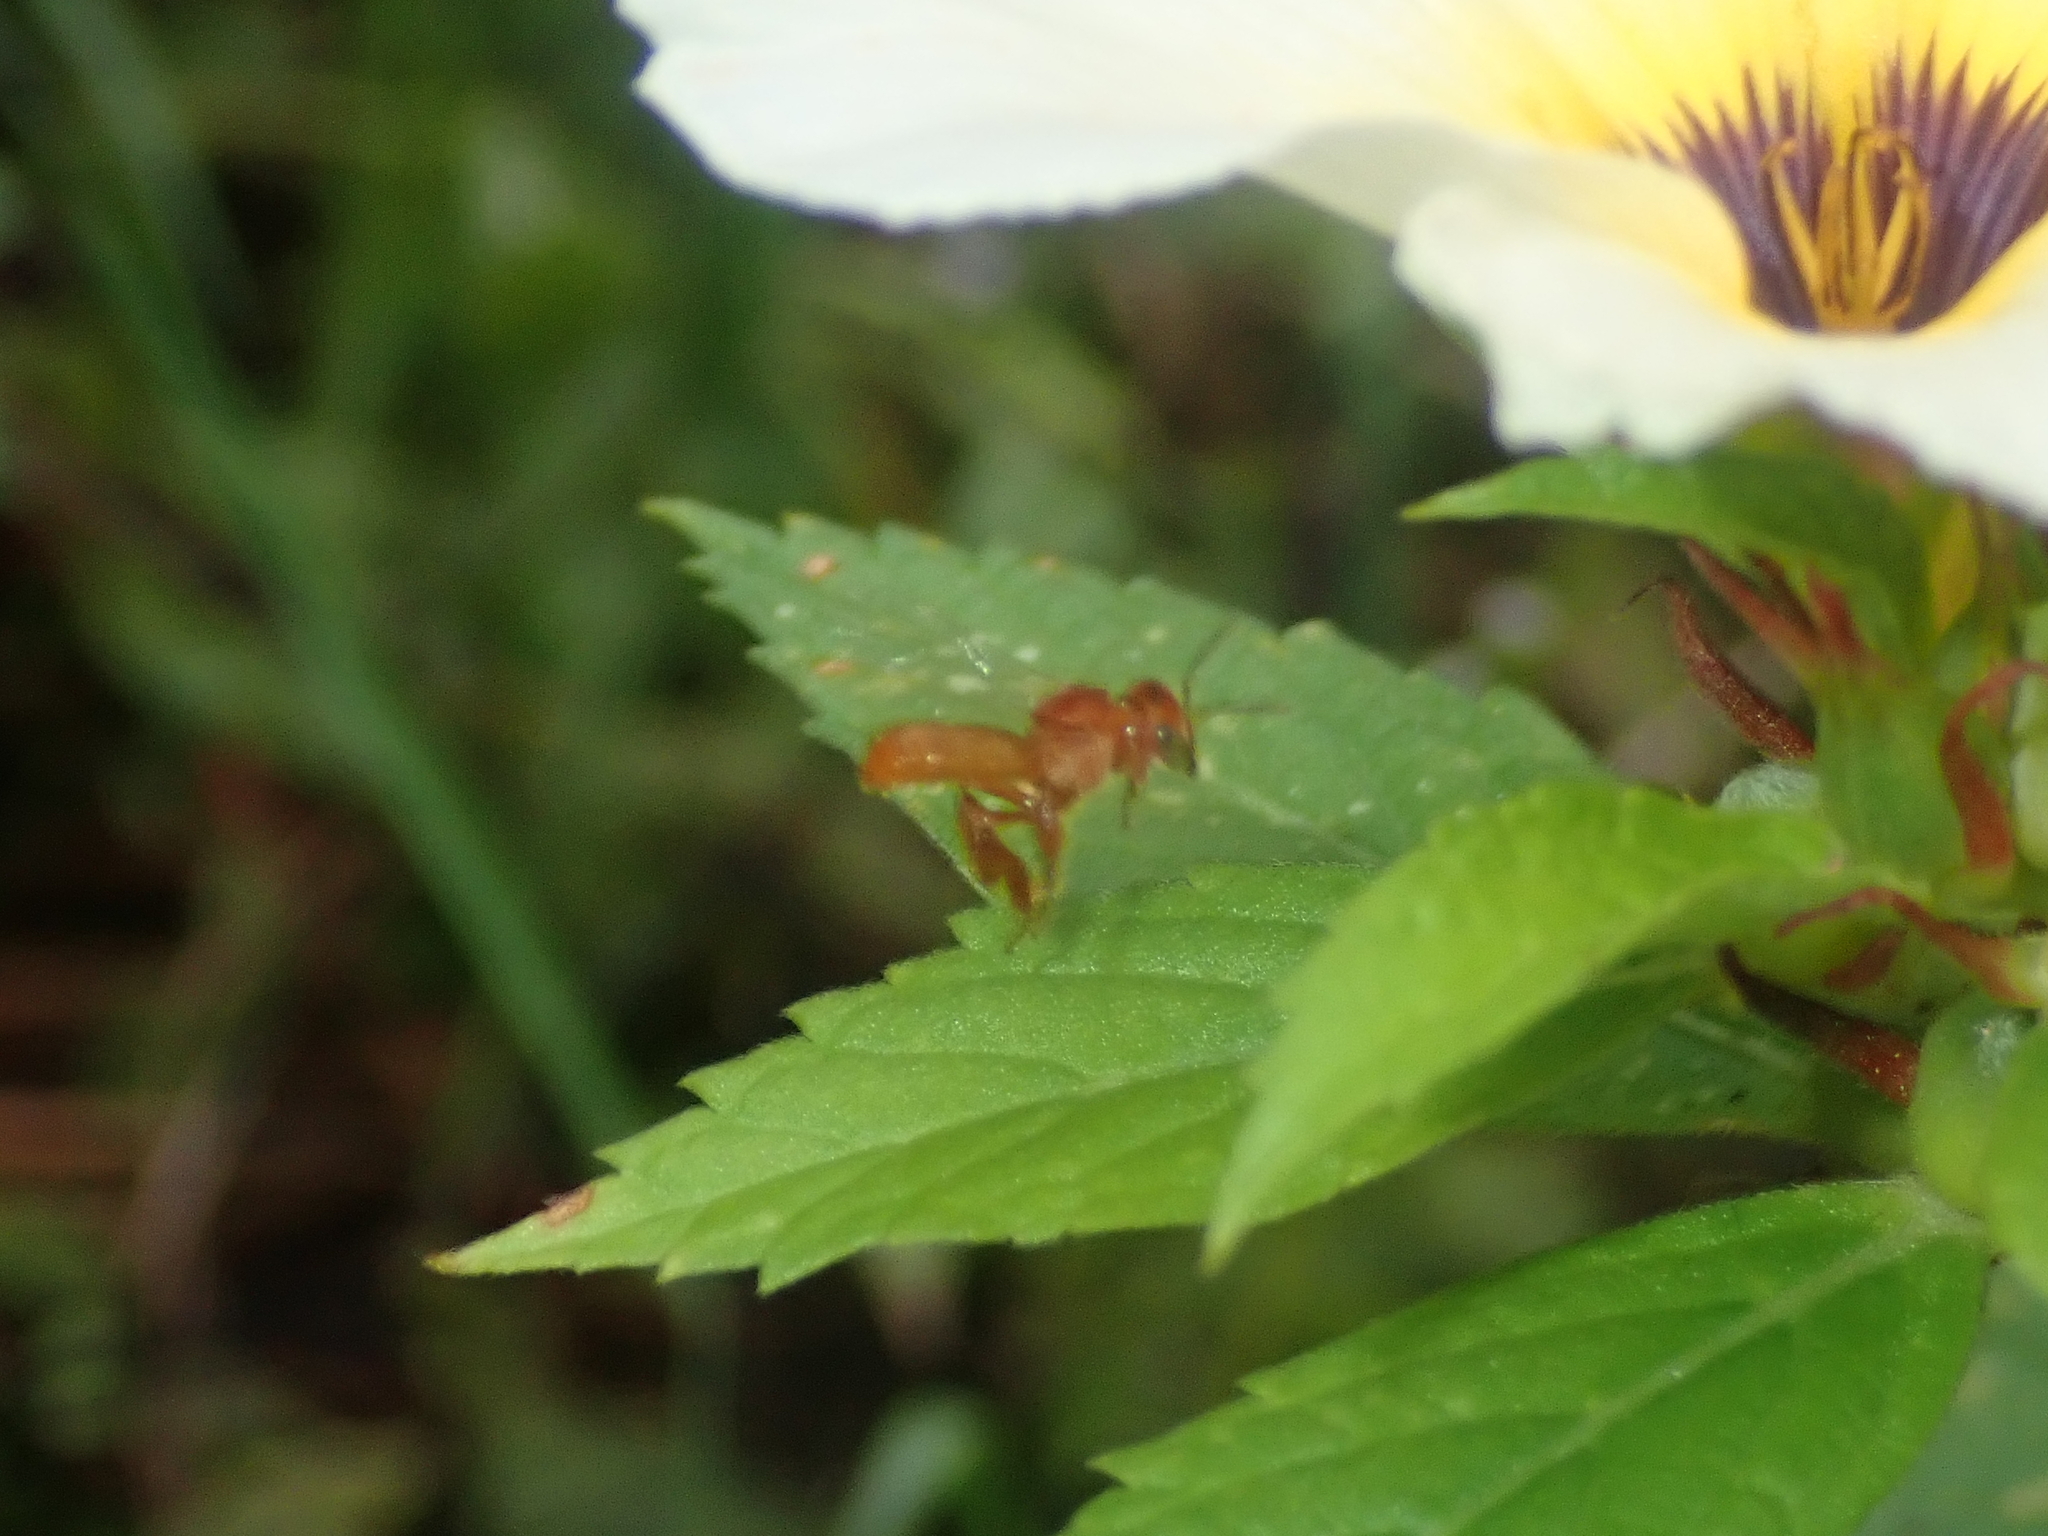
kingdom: Animalia
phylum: Arthropoda
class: Insecta
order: Hymenoptera
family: Apidae
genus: Trigona
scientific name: Trigona pallens
